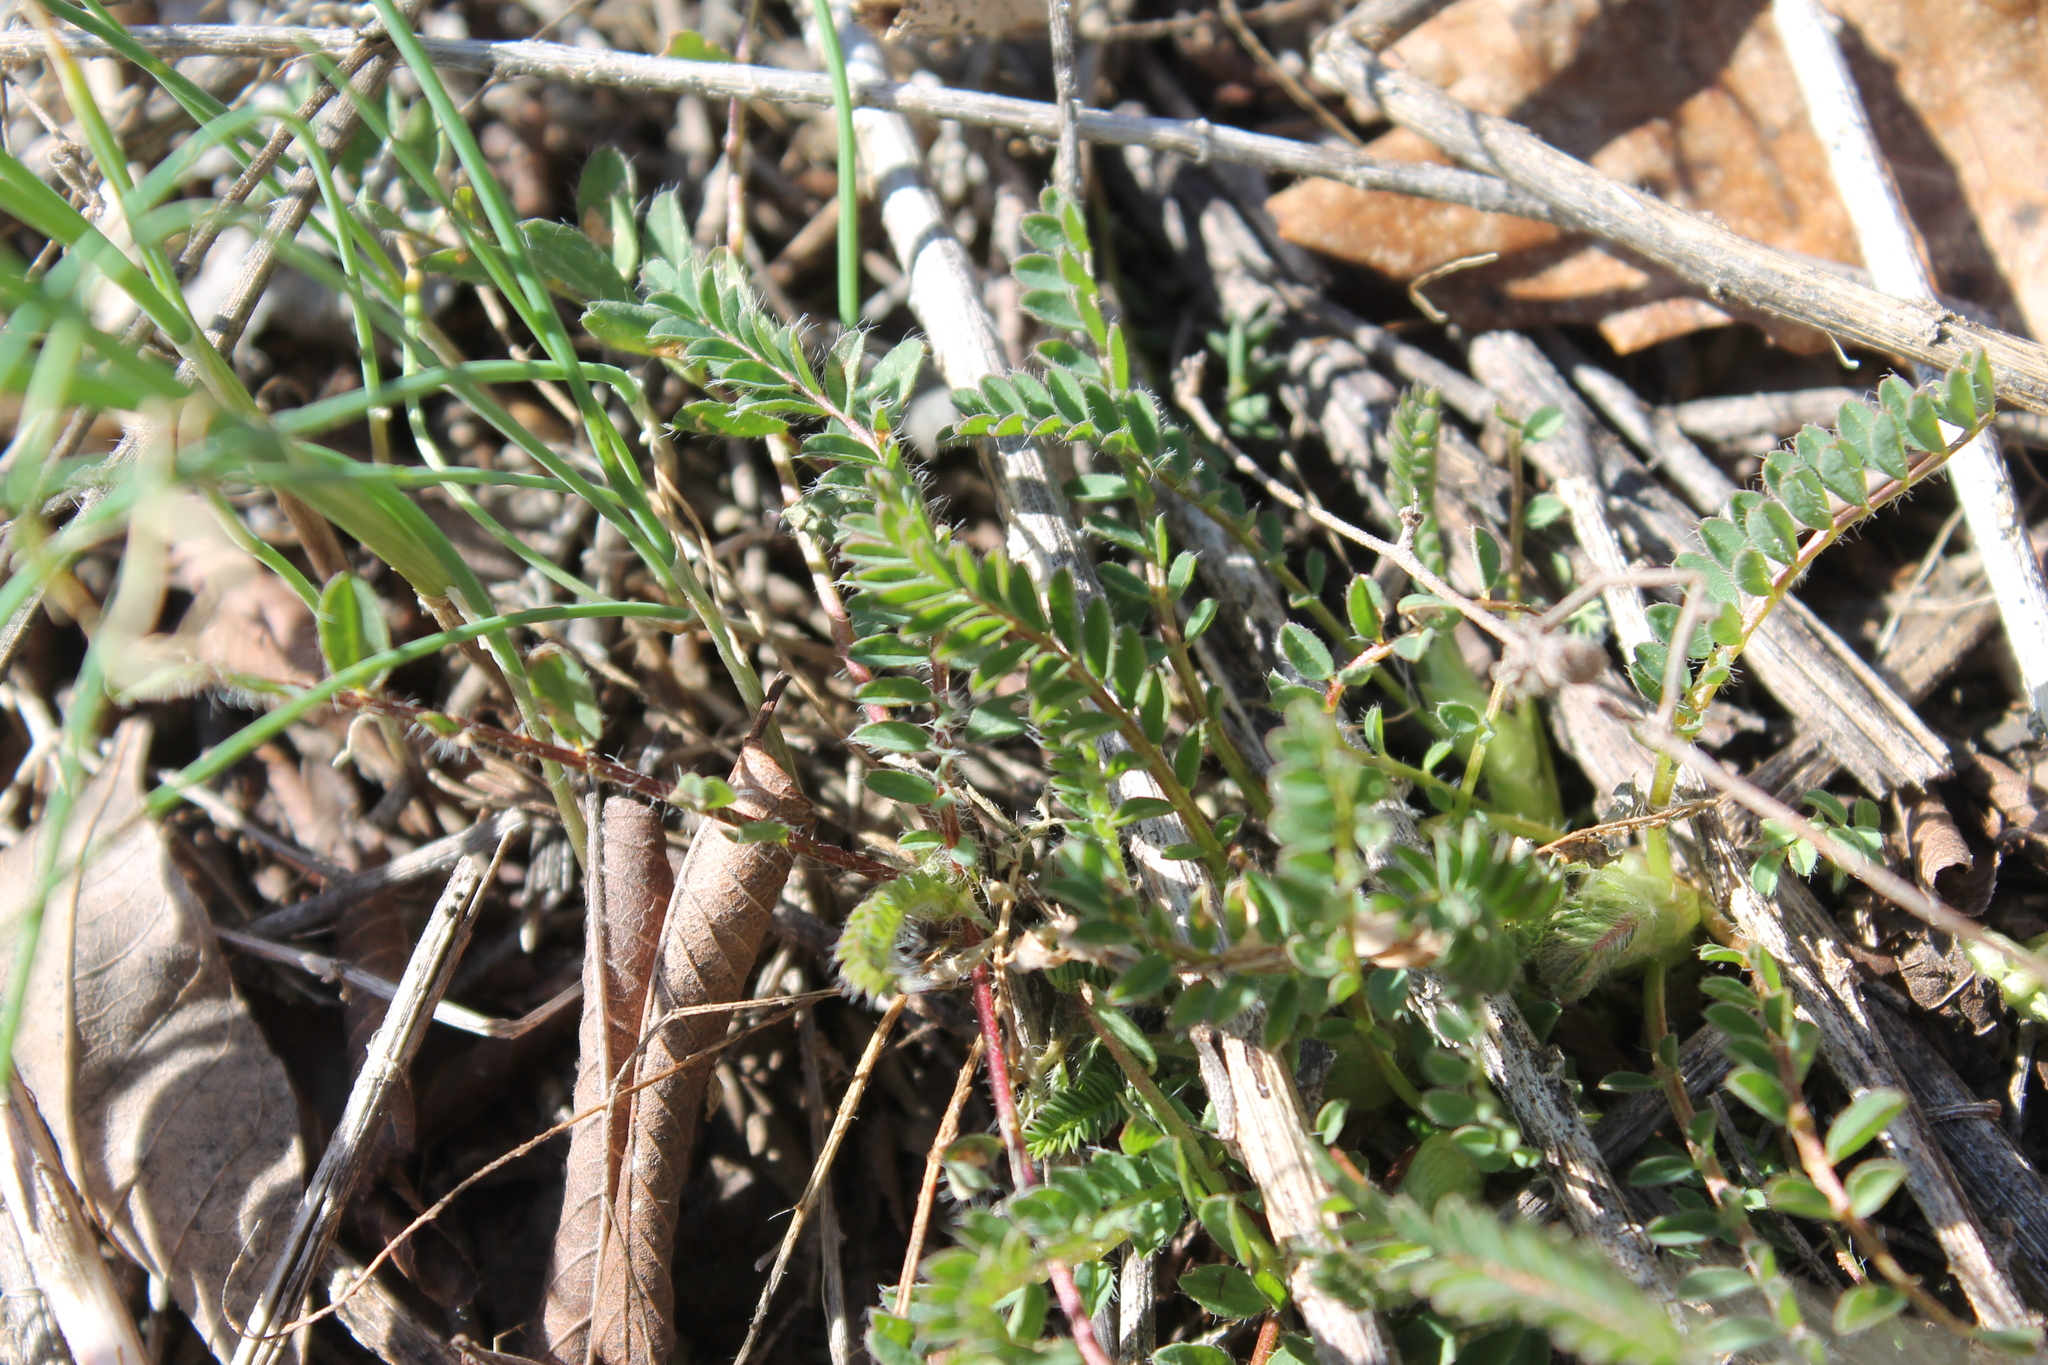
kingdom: Plantae
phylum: Tracheophyta
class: Magnoliopsida
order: Fabales
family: Fabaceae
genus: Astragalus
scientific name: Astragalus tennesseensis
